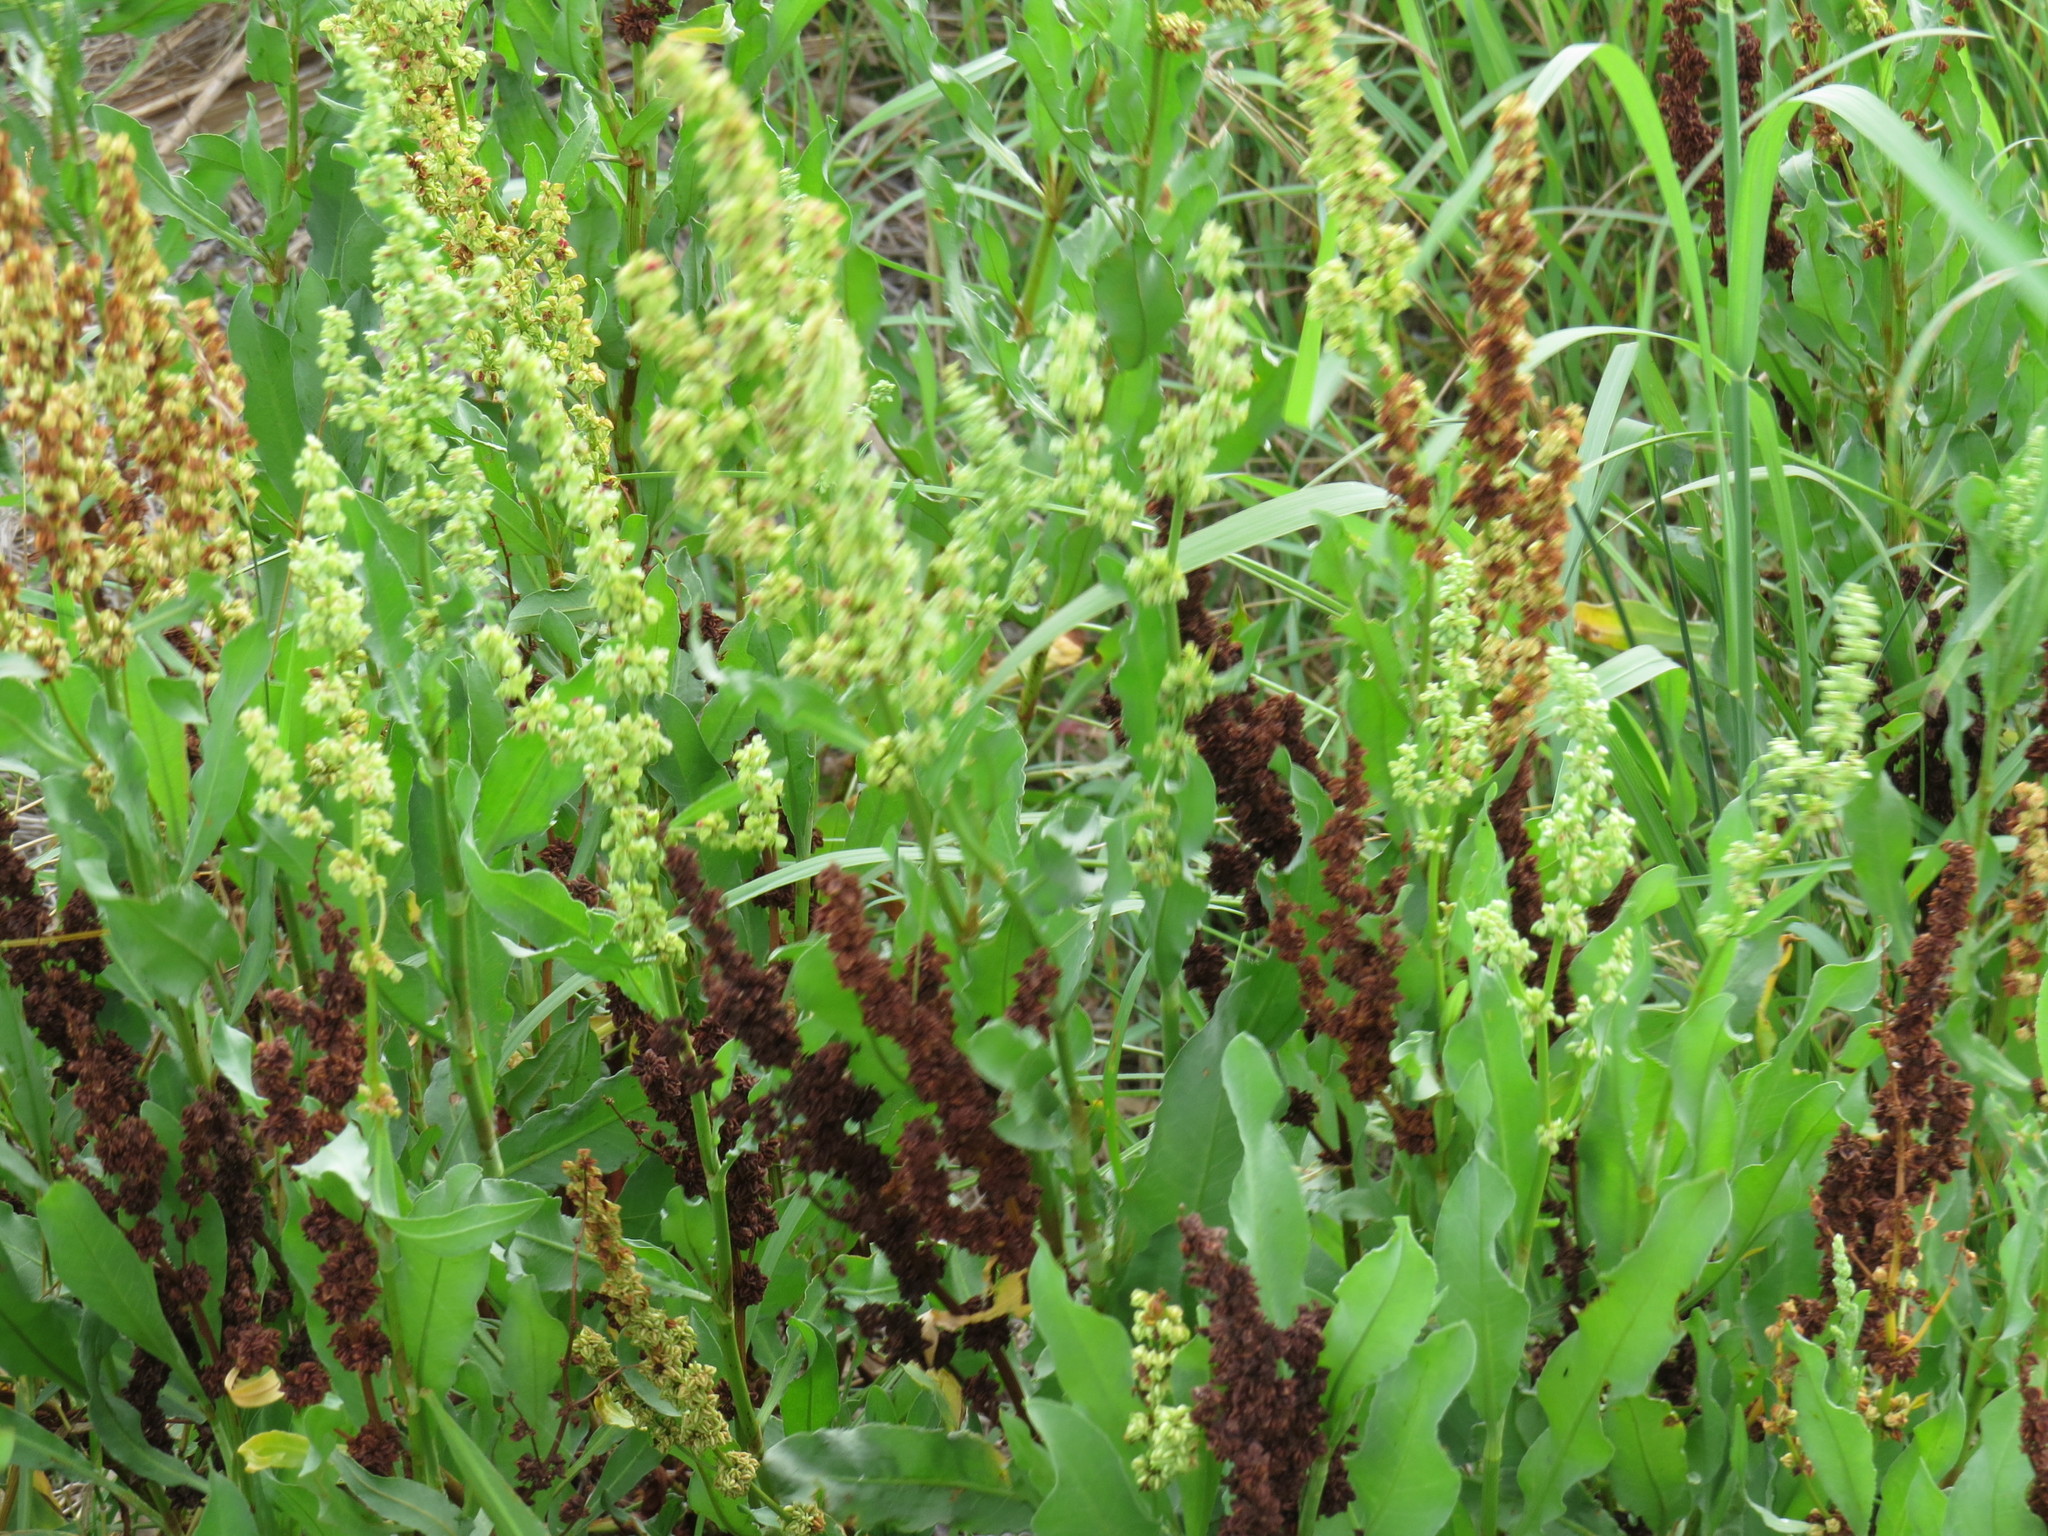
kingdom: Plantae
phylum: Tracheophyta
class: Magnoliopsida
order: Caryophyllales
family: Polygonaceae
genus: Rumex
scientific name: Rumex chrysocarpos
